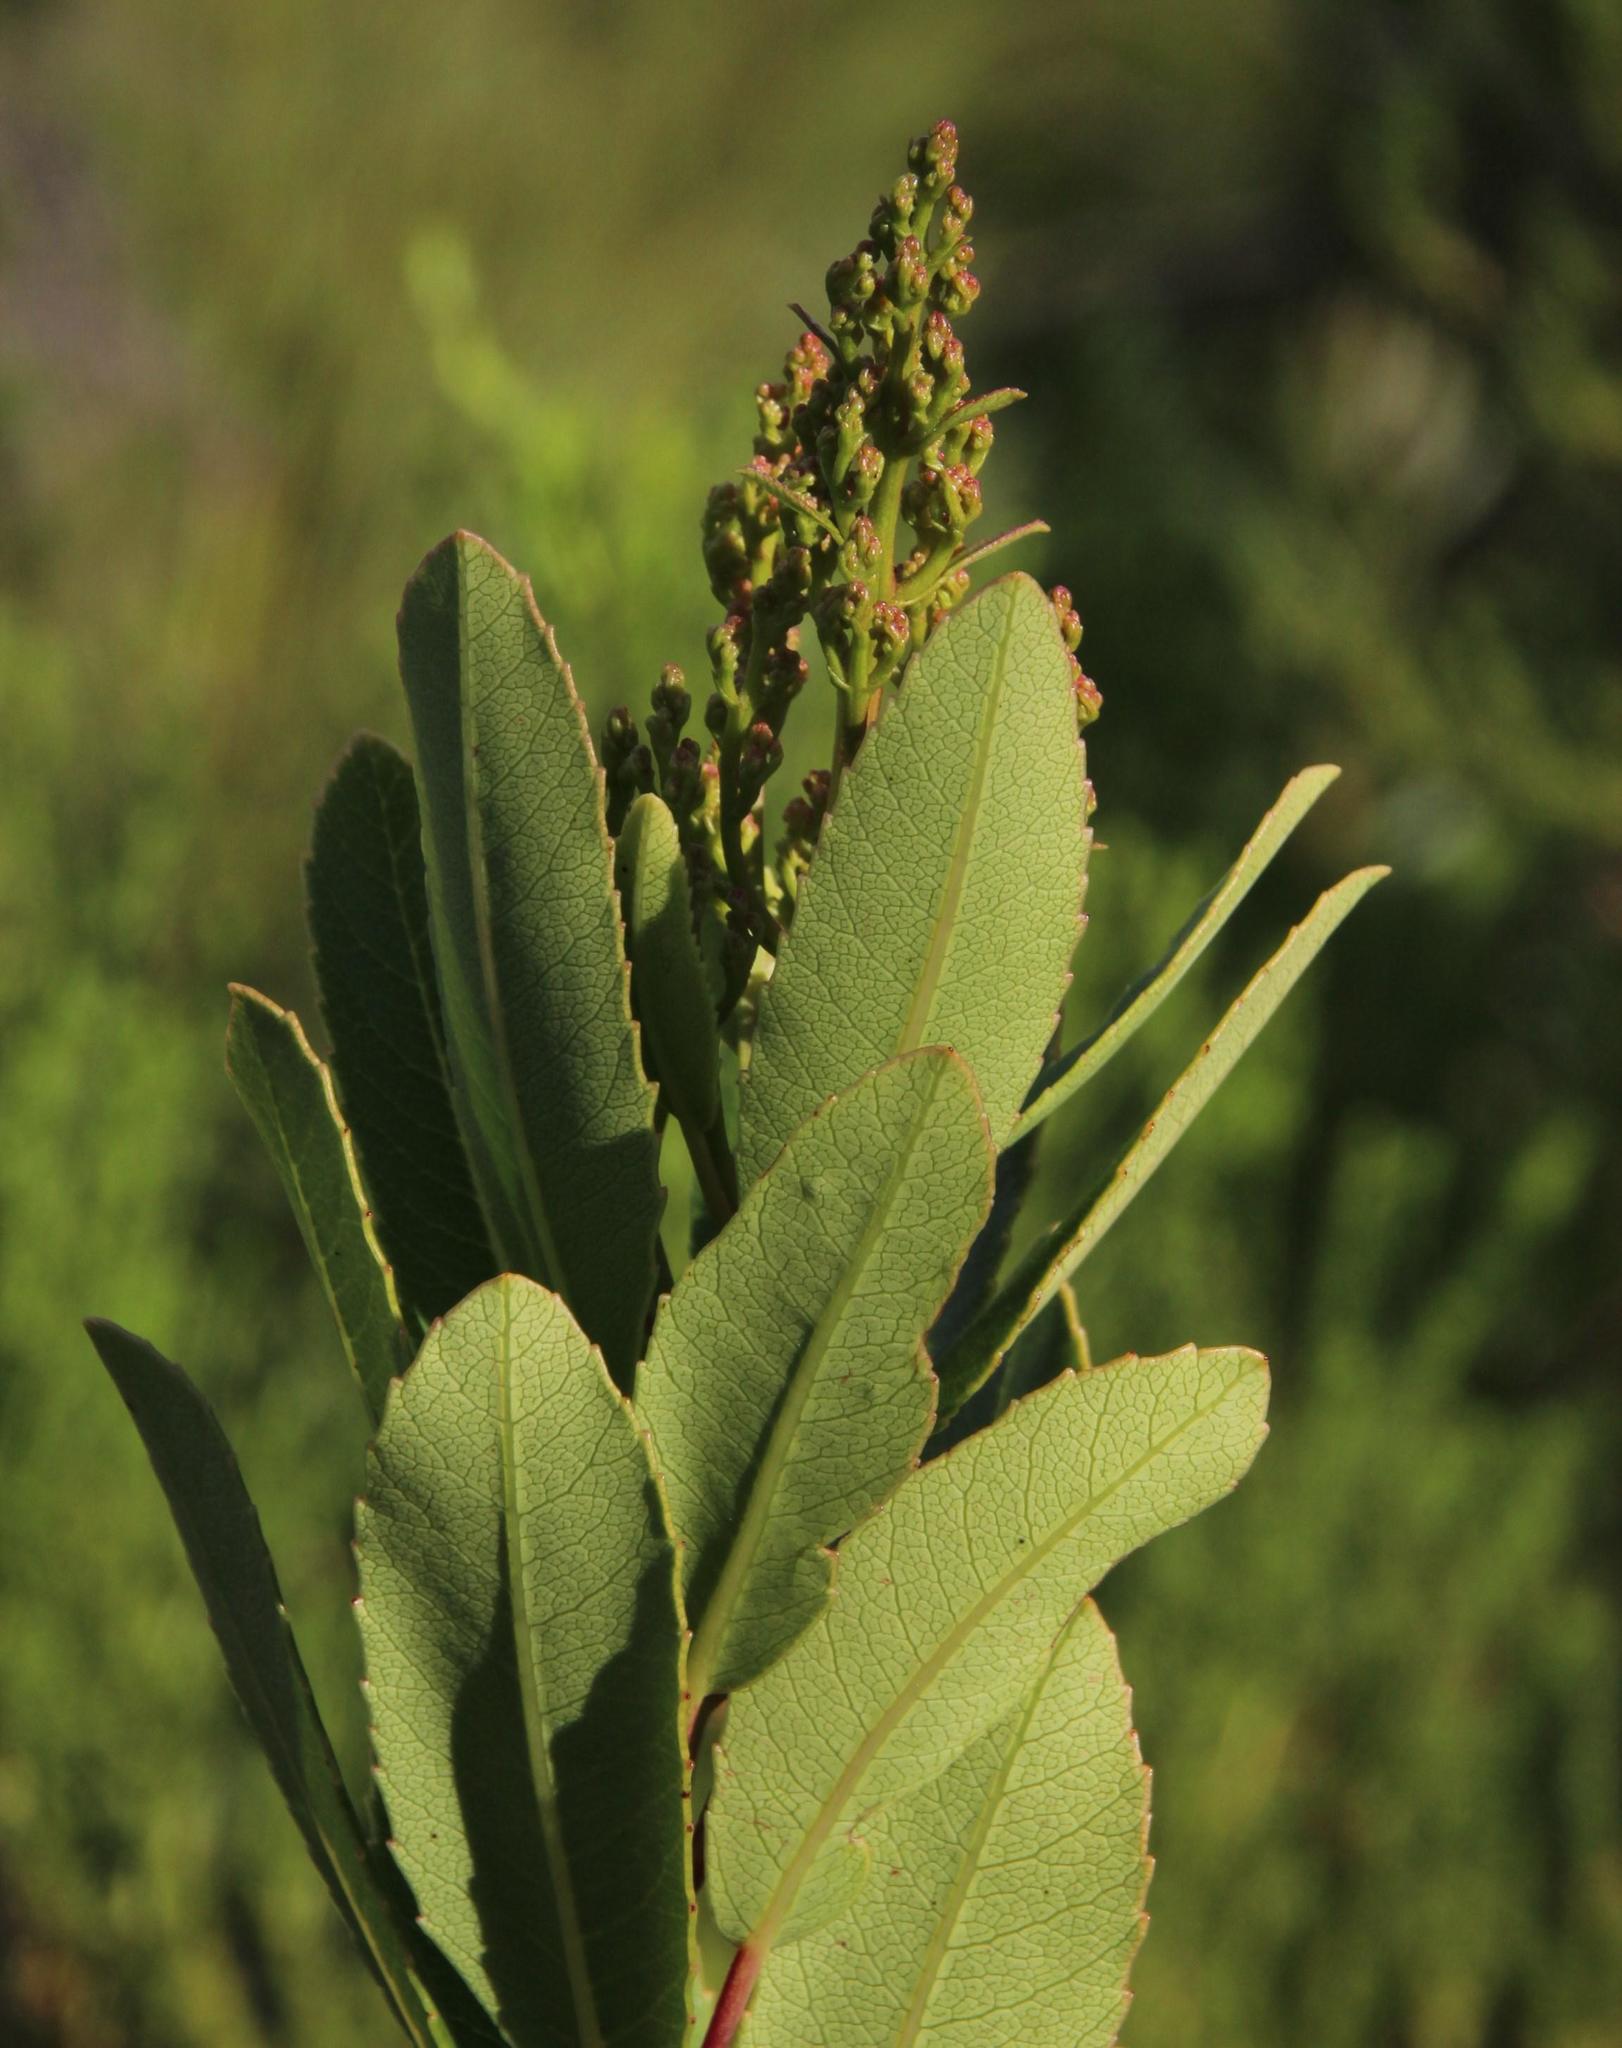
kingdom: Plantae
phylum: Tracheophyta
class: Magnoliopsida
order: Sapindales
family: Anacardiaceae
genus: Laurophyllus
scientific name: Laurophyllus capensis
